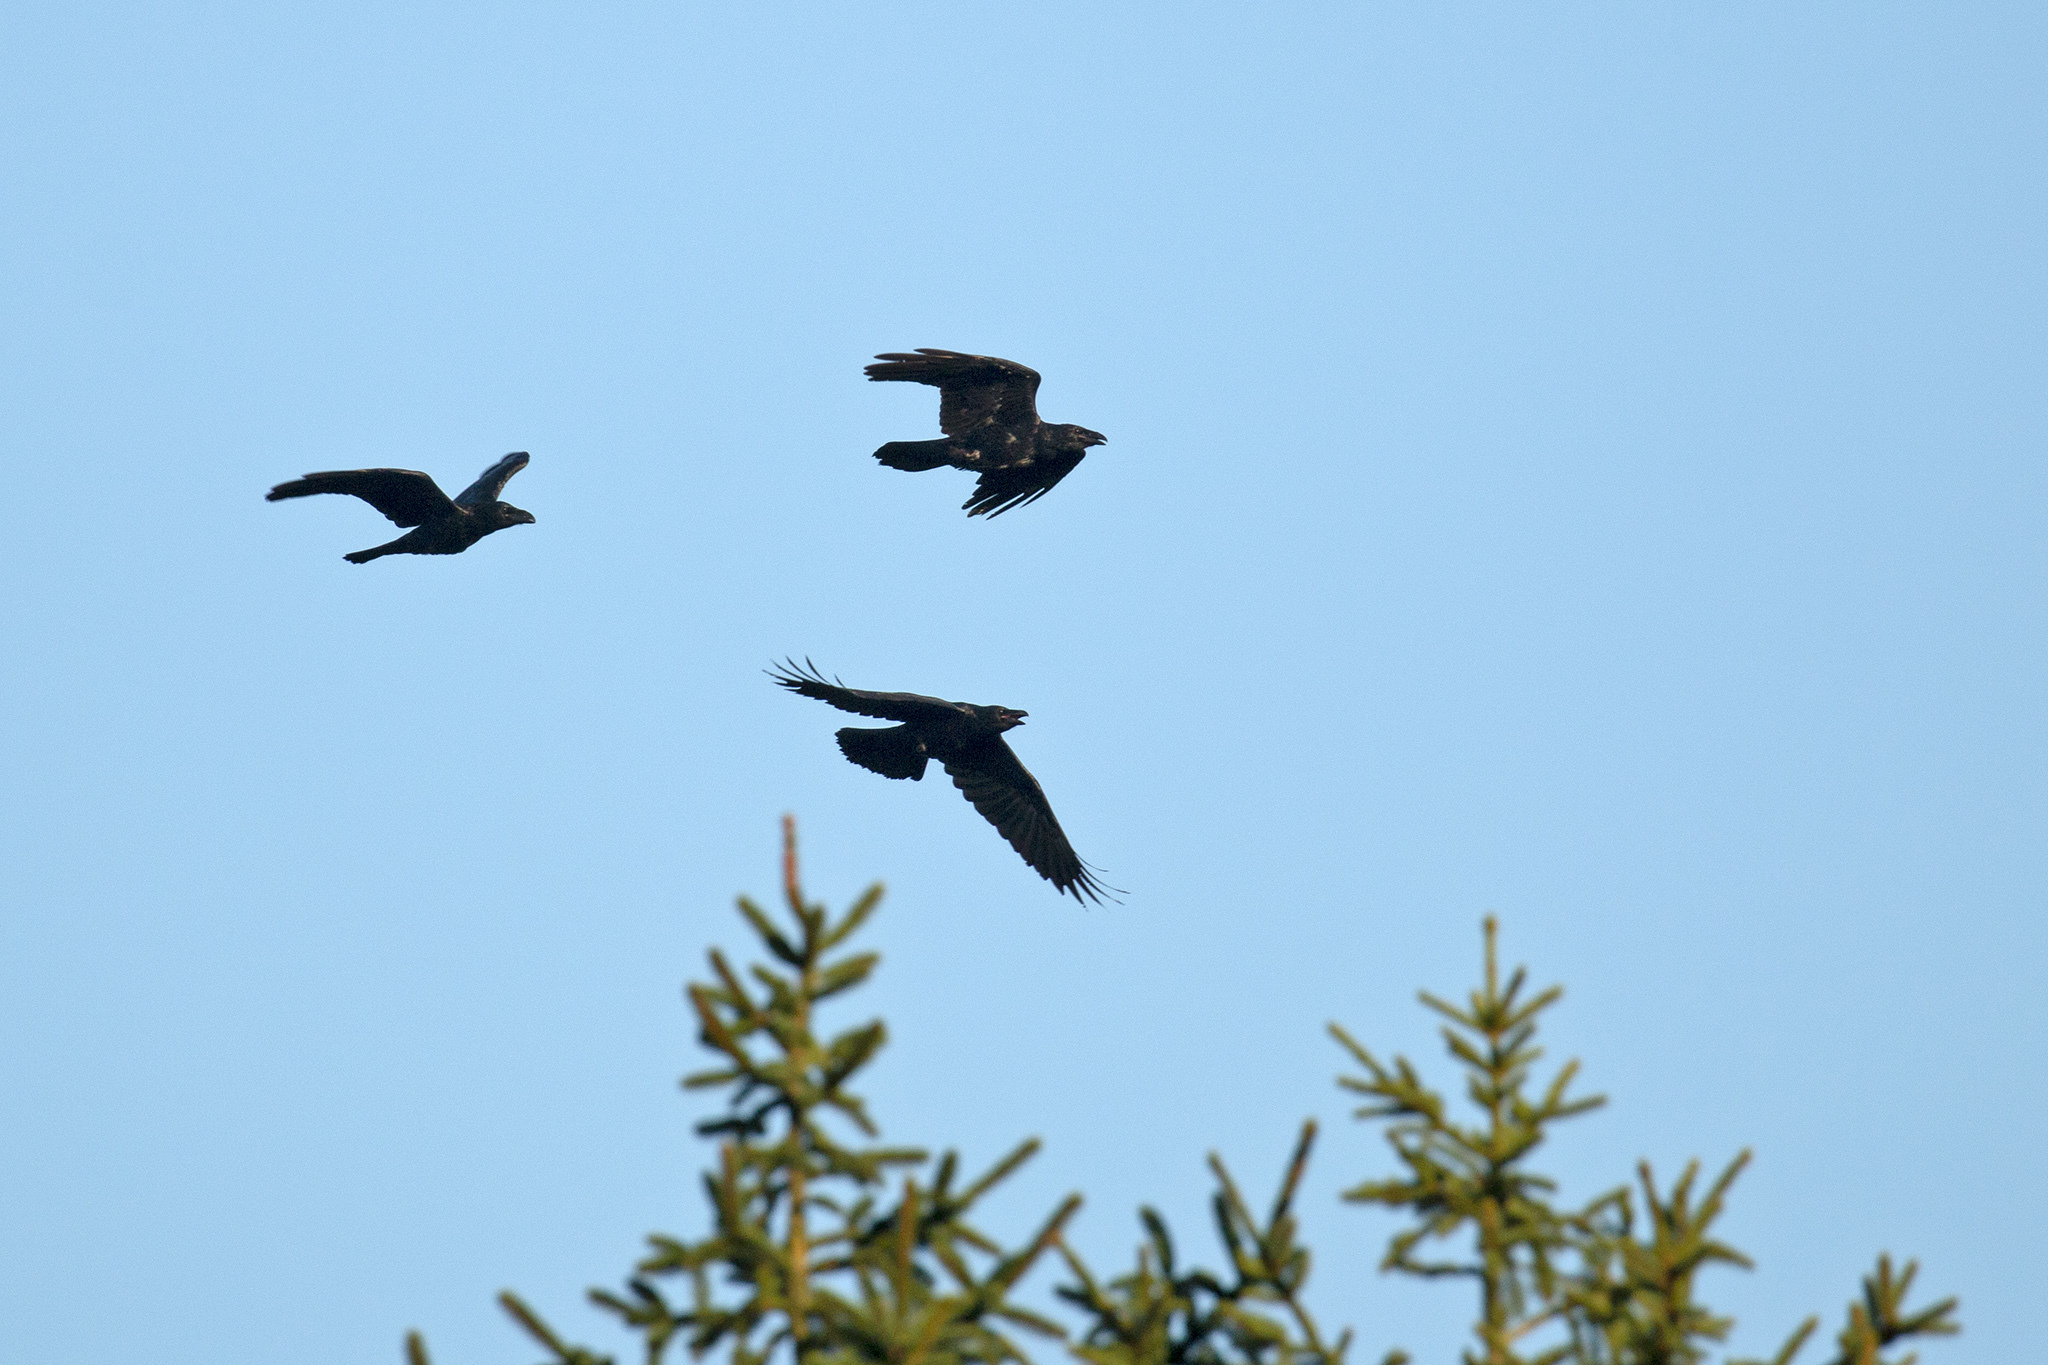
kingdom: Animalia
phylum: Chordata
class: Aves
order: Passeriformes
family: Corvidae
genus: Corvus
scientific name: Corvus corax
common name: Common raven
